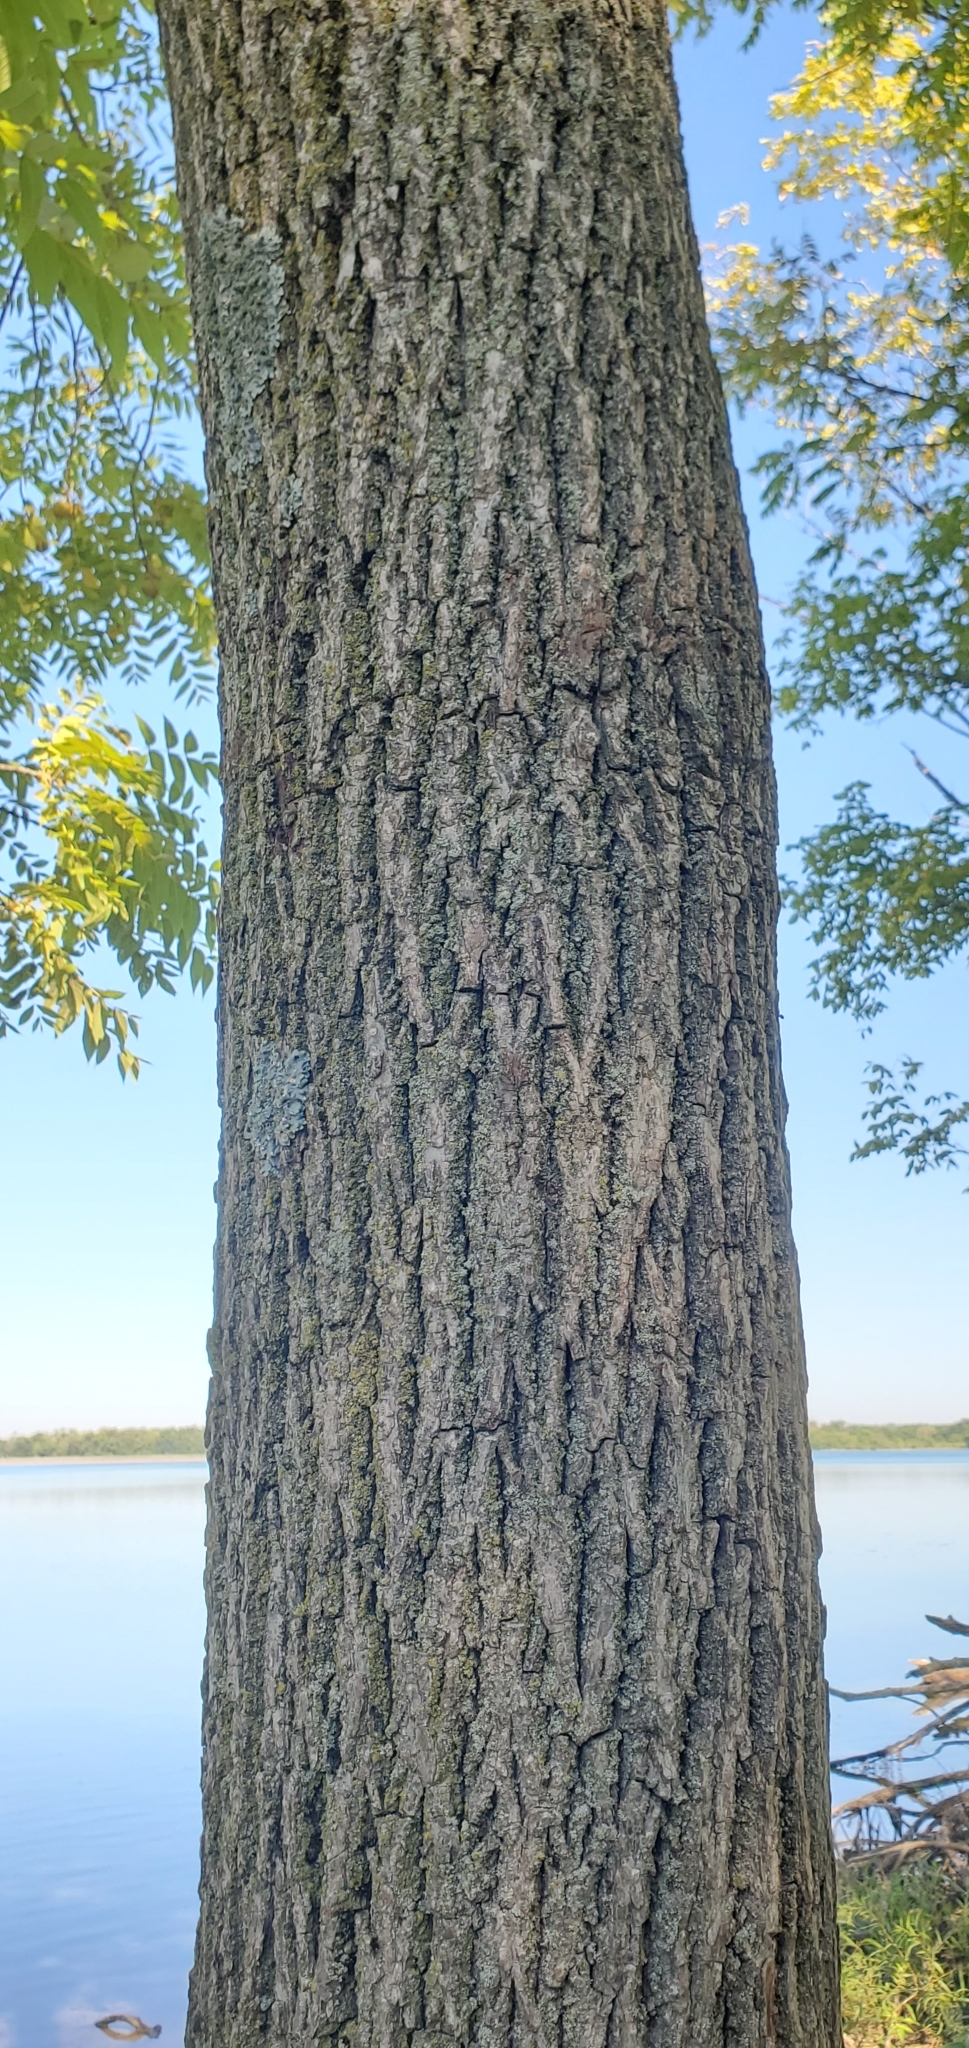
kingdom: Plantae
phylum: Tracheophyta
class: Magnoliopsida
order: Fagales
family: Juglandaceae
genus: Juglans
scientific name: Juglans nigra
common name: Black walnut
